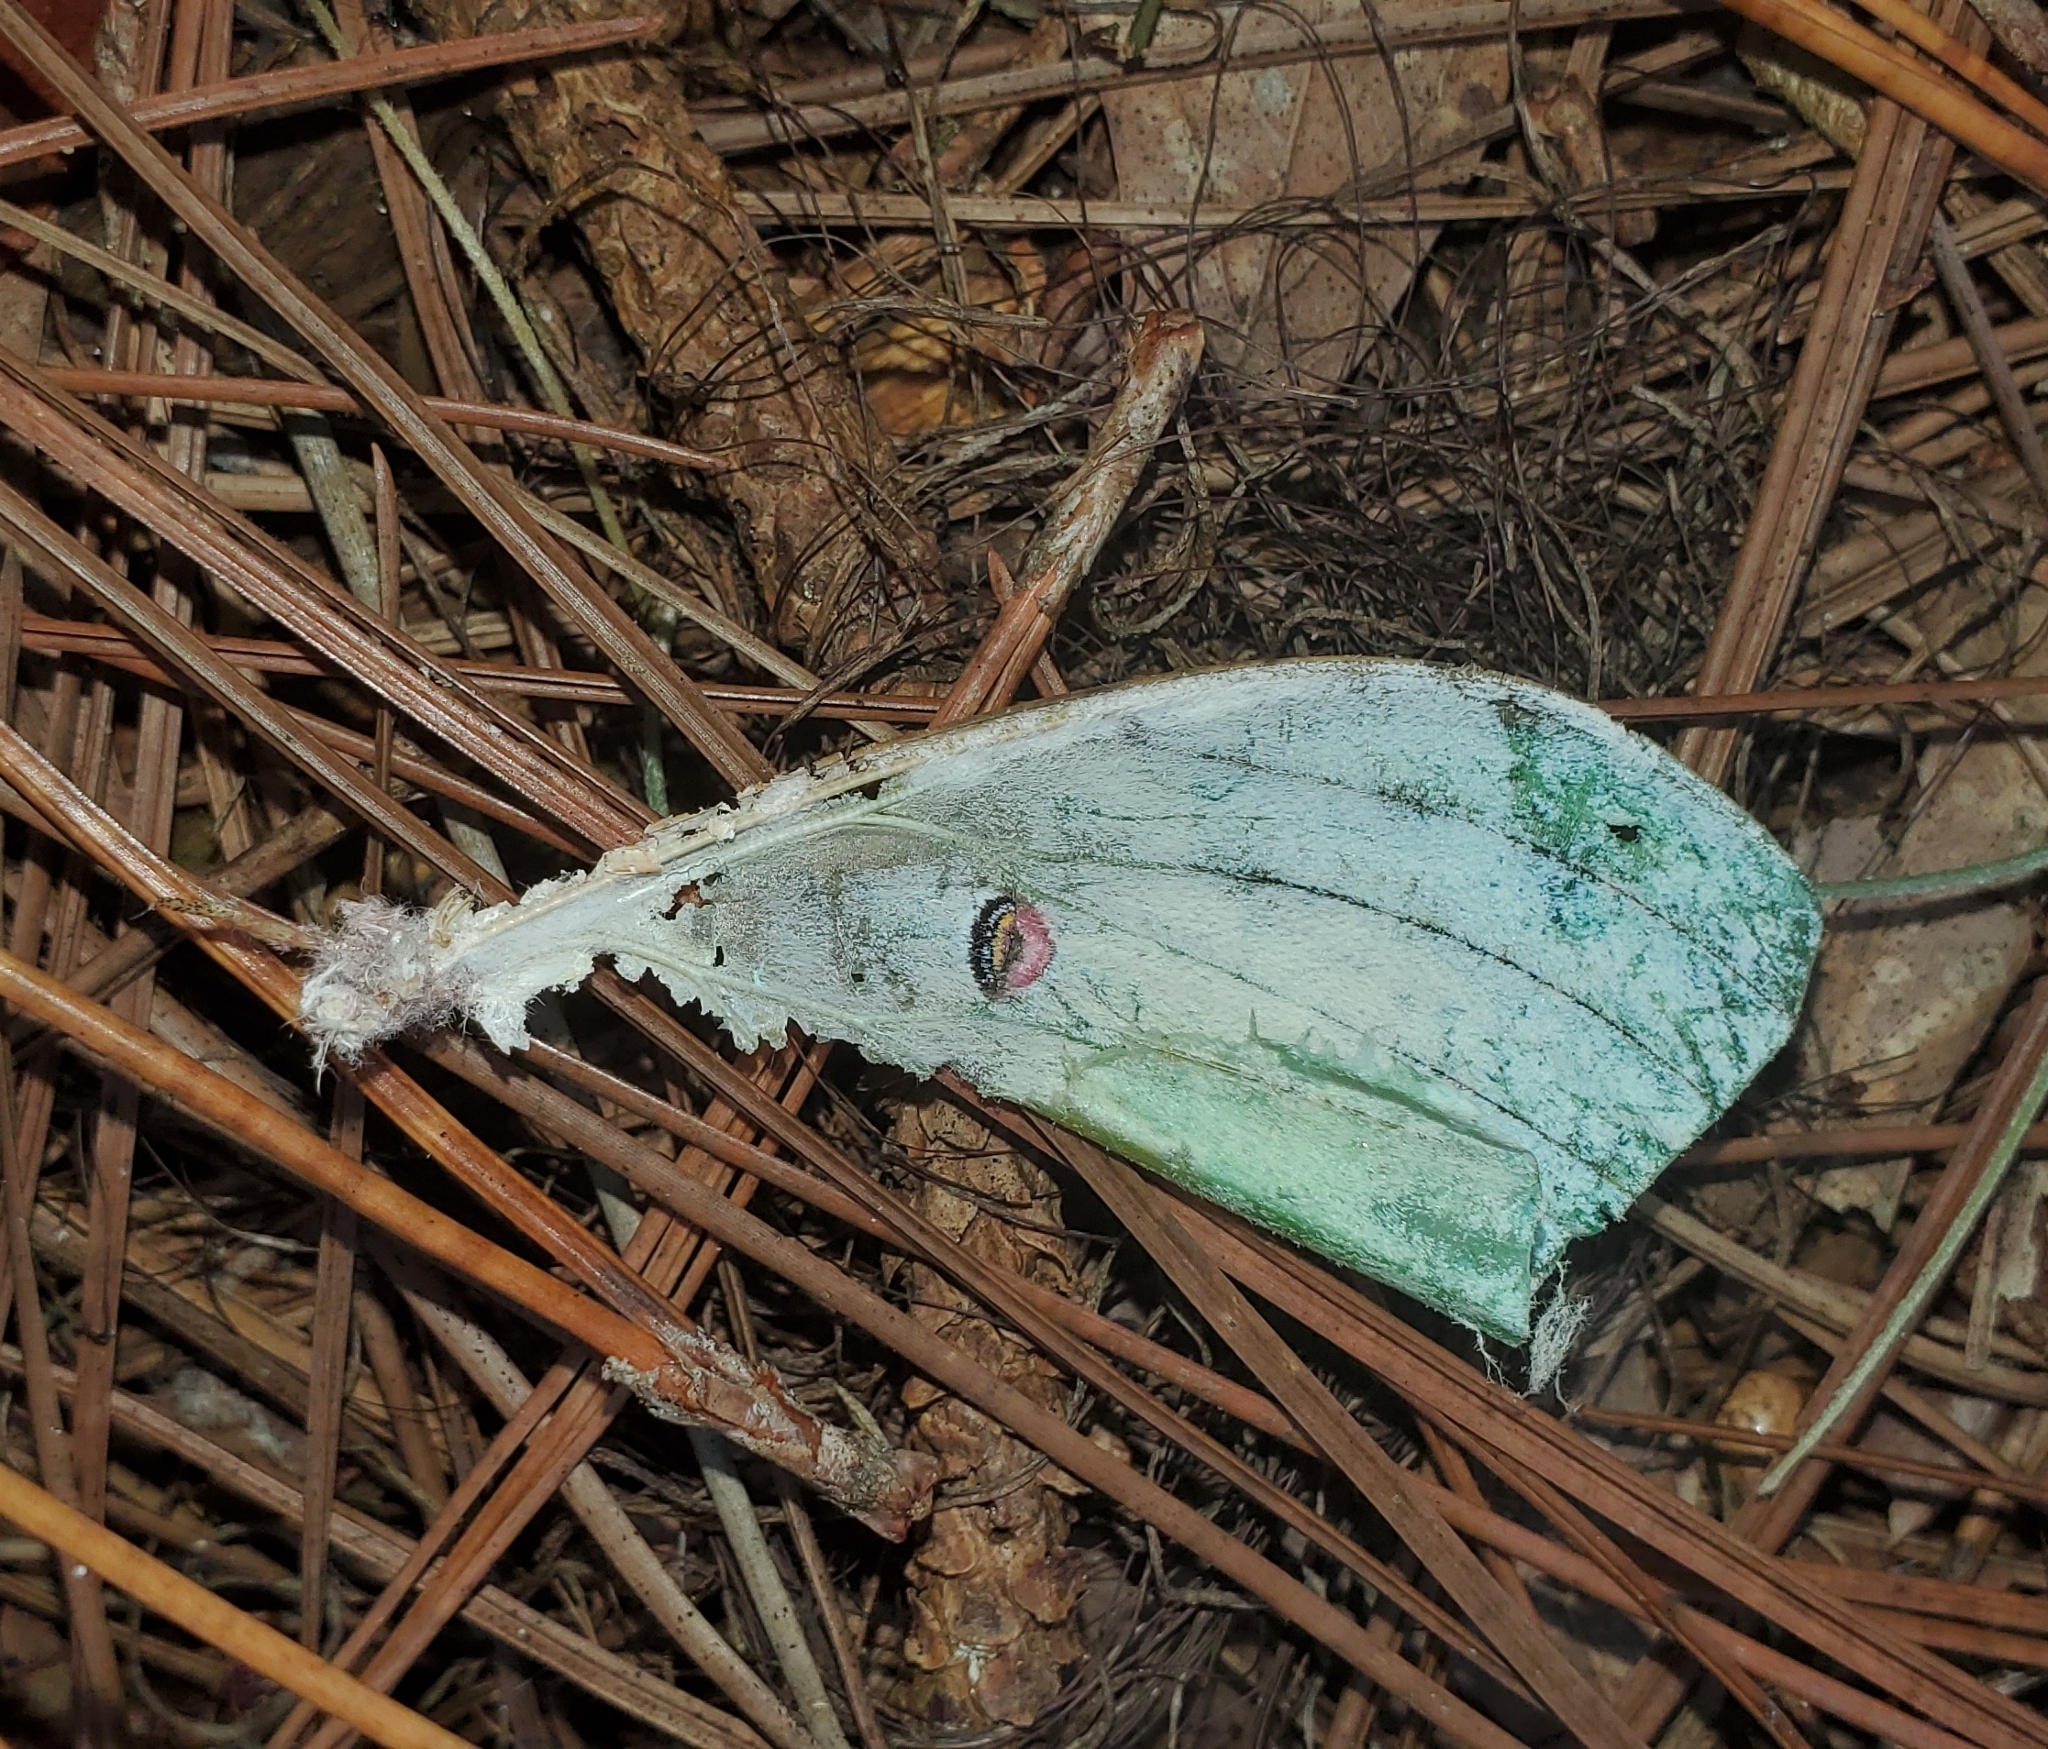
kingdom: Animalia
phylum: Arthropoda
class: Insecta
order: Lepidoptera
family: Saturniidae
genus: Actias
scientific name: Actias luna
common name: Luna moth
